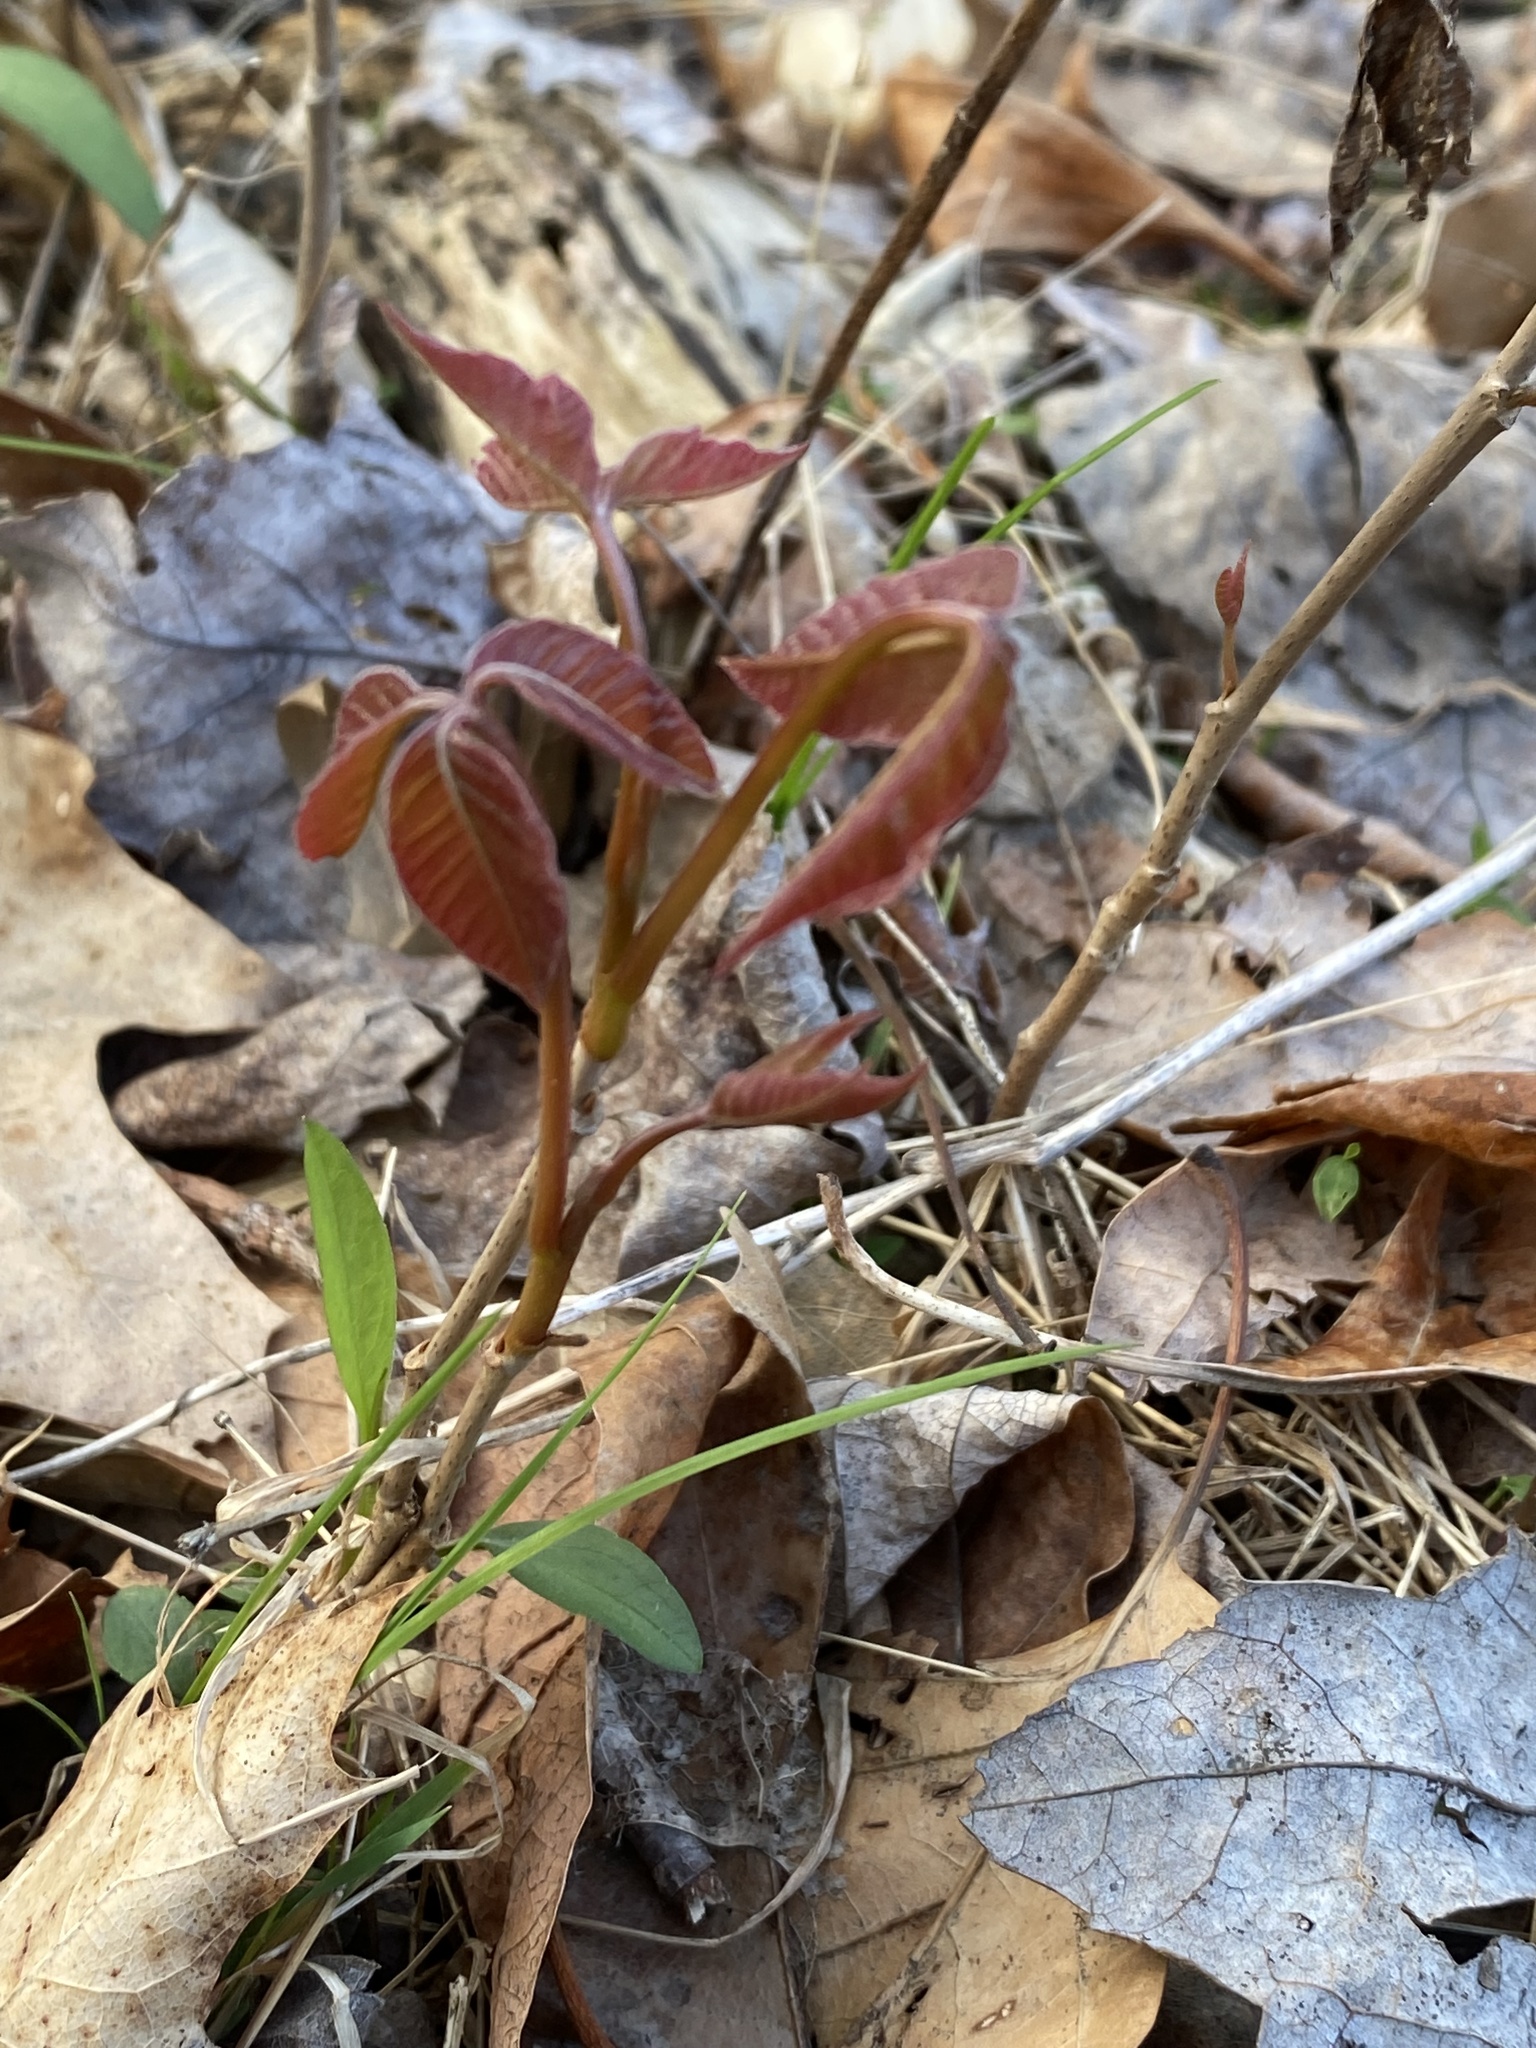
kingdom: Plantae
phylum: Tracheophyta
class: Magnoliopsida
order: Sapindales
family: Anacardiaceae
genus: Toxicodendron
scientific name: Toxicodendron radicans
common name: Poison ivy
